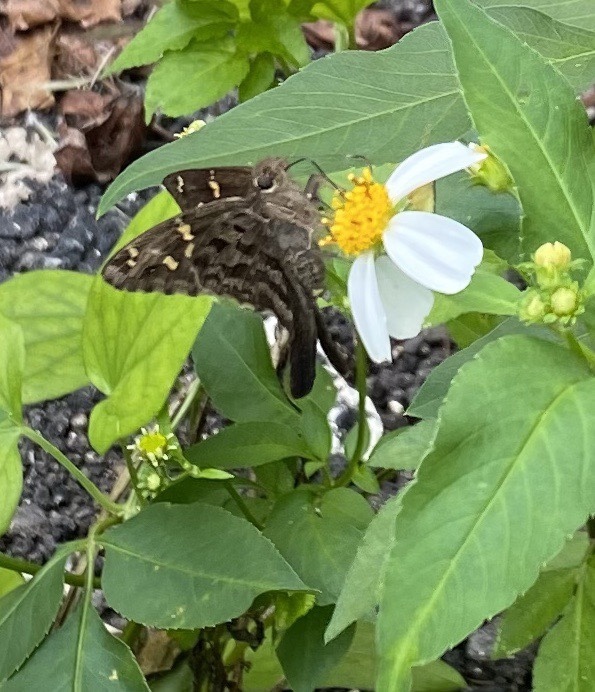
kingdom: Animalia
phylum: Arthropoda
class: Insecta
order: Lepidoptera
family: Hesperiidae
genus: Thorybes
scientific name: Thorybes
